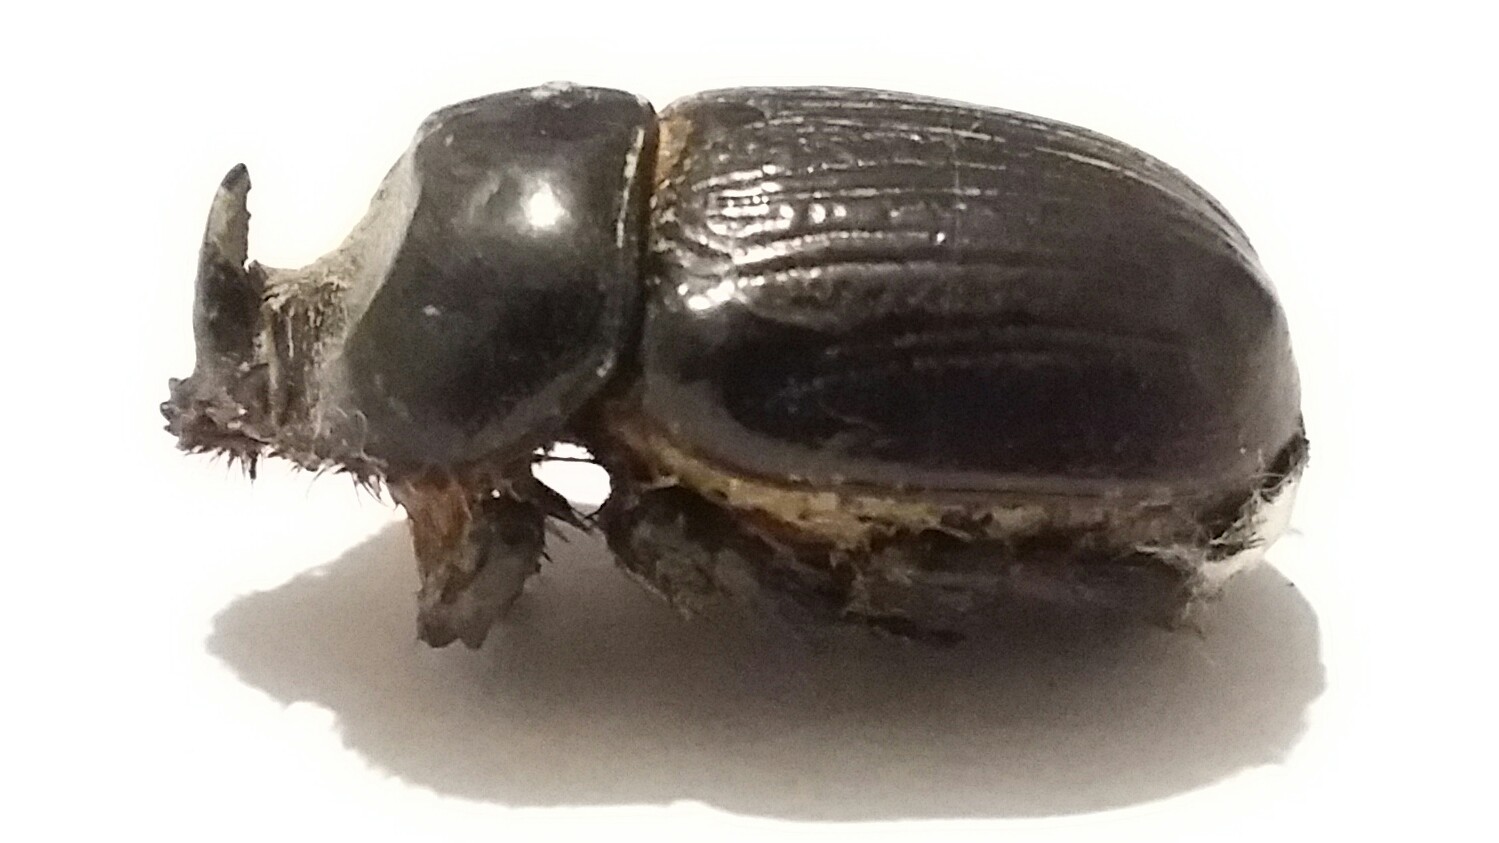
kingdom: Animalia
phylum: Arthropoda
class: Insecta
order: Coleoptera
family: Scarabaeidae
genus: Xyloryctes
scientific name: Xyloryctes jamaicensis
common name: Eastern rhinoceros beetle
